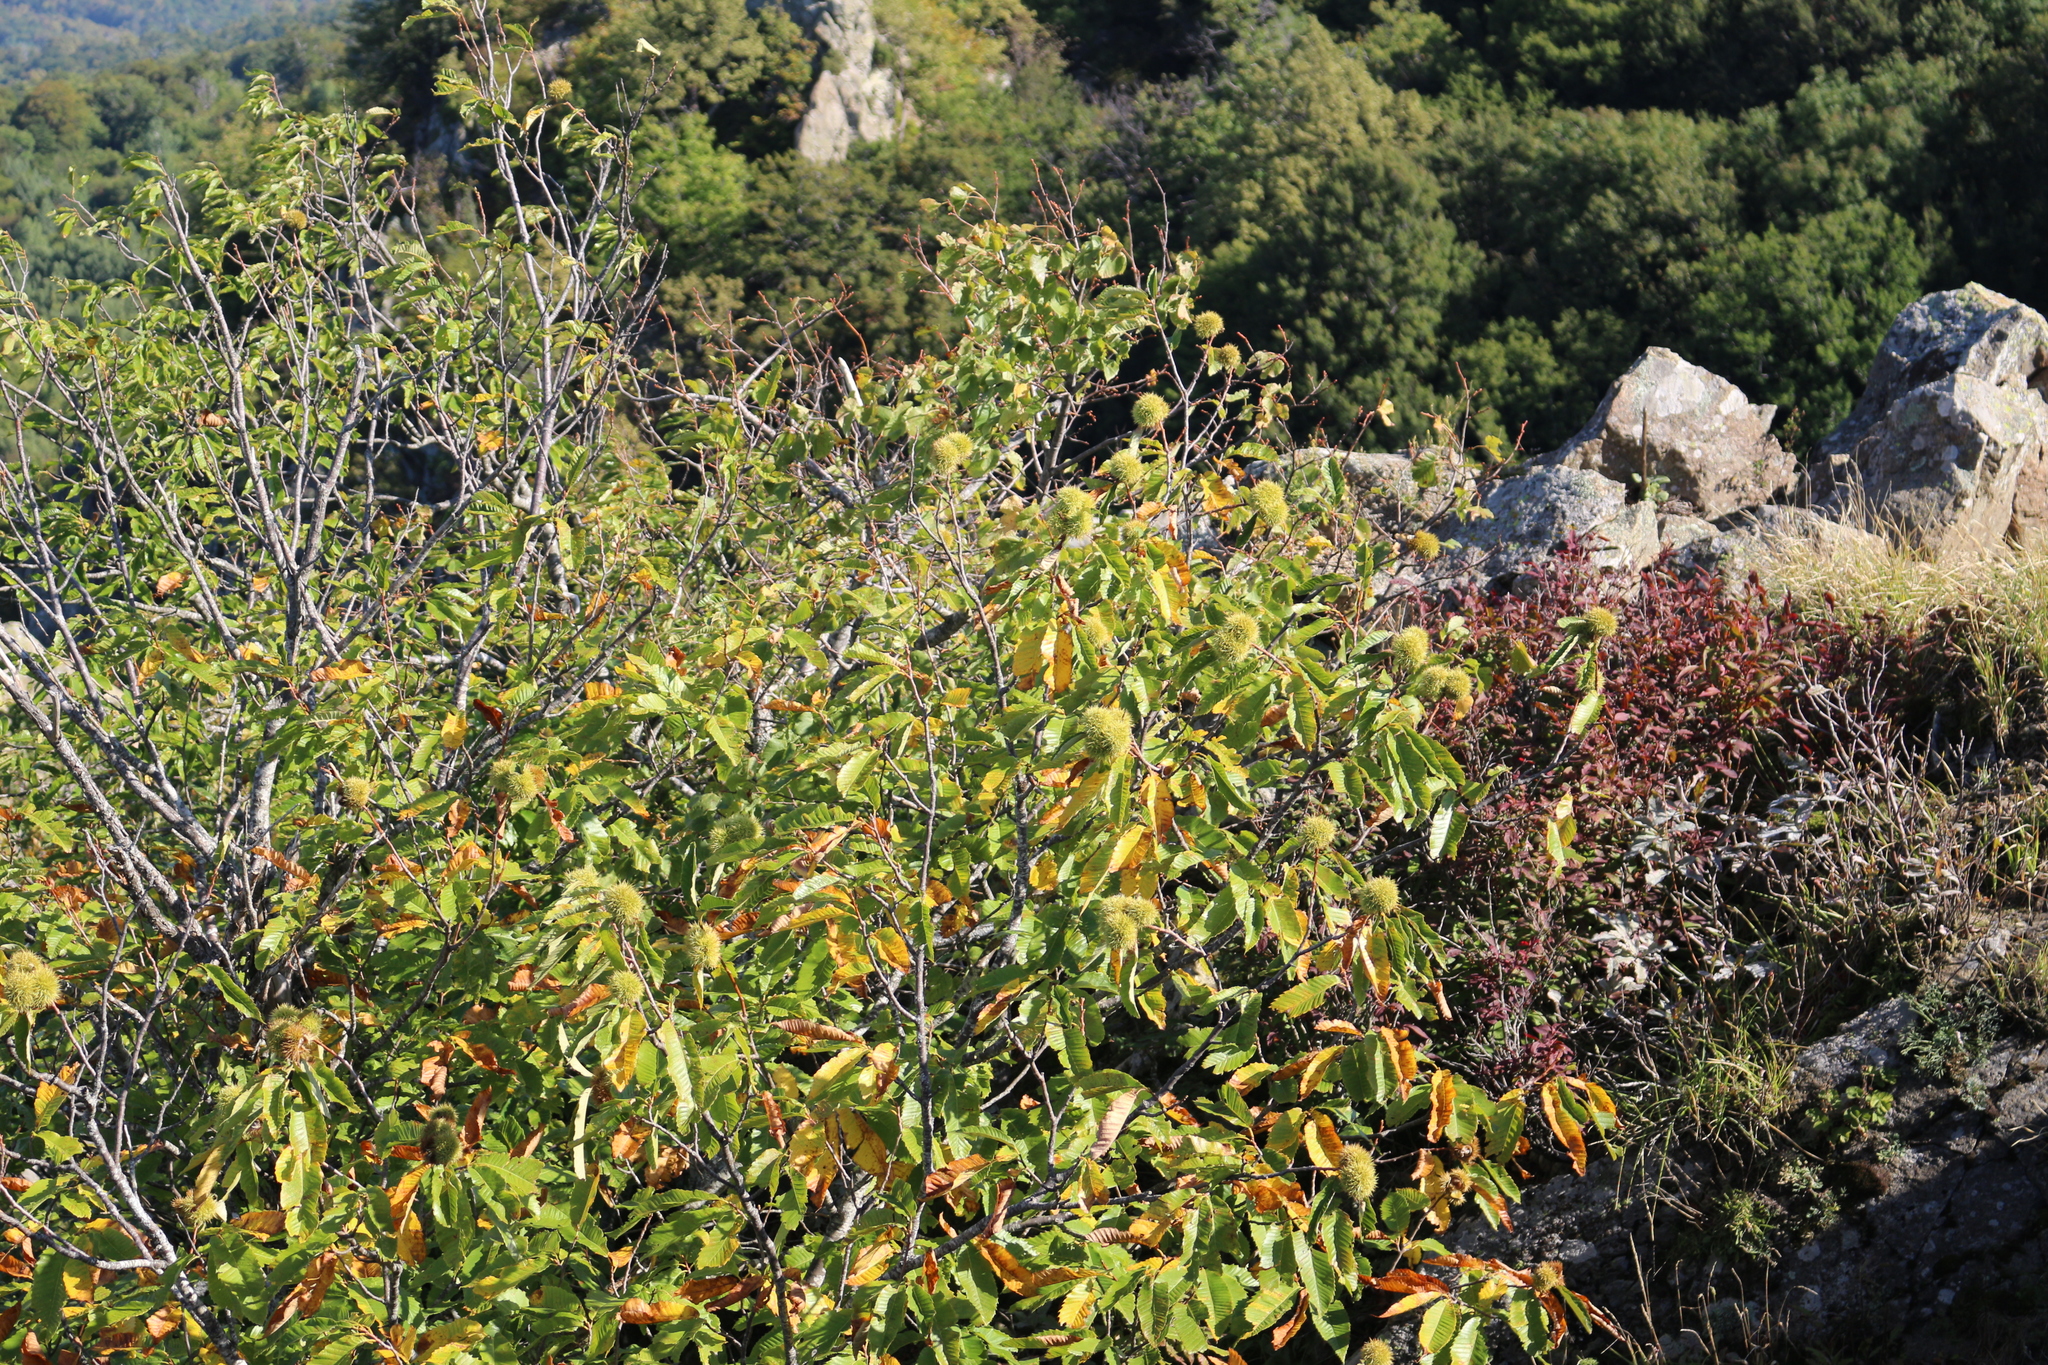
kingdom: Plantae
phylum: Tracheophyta
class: Magnoliopsida
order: Fagales
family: Fagaceae
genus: Castanea
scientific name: Castanea sativa
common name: Sweet chestnut
